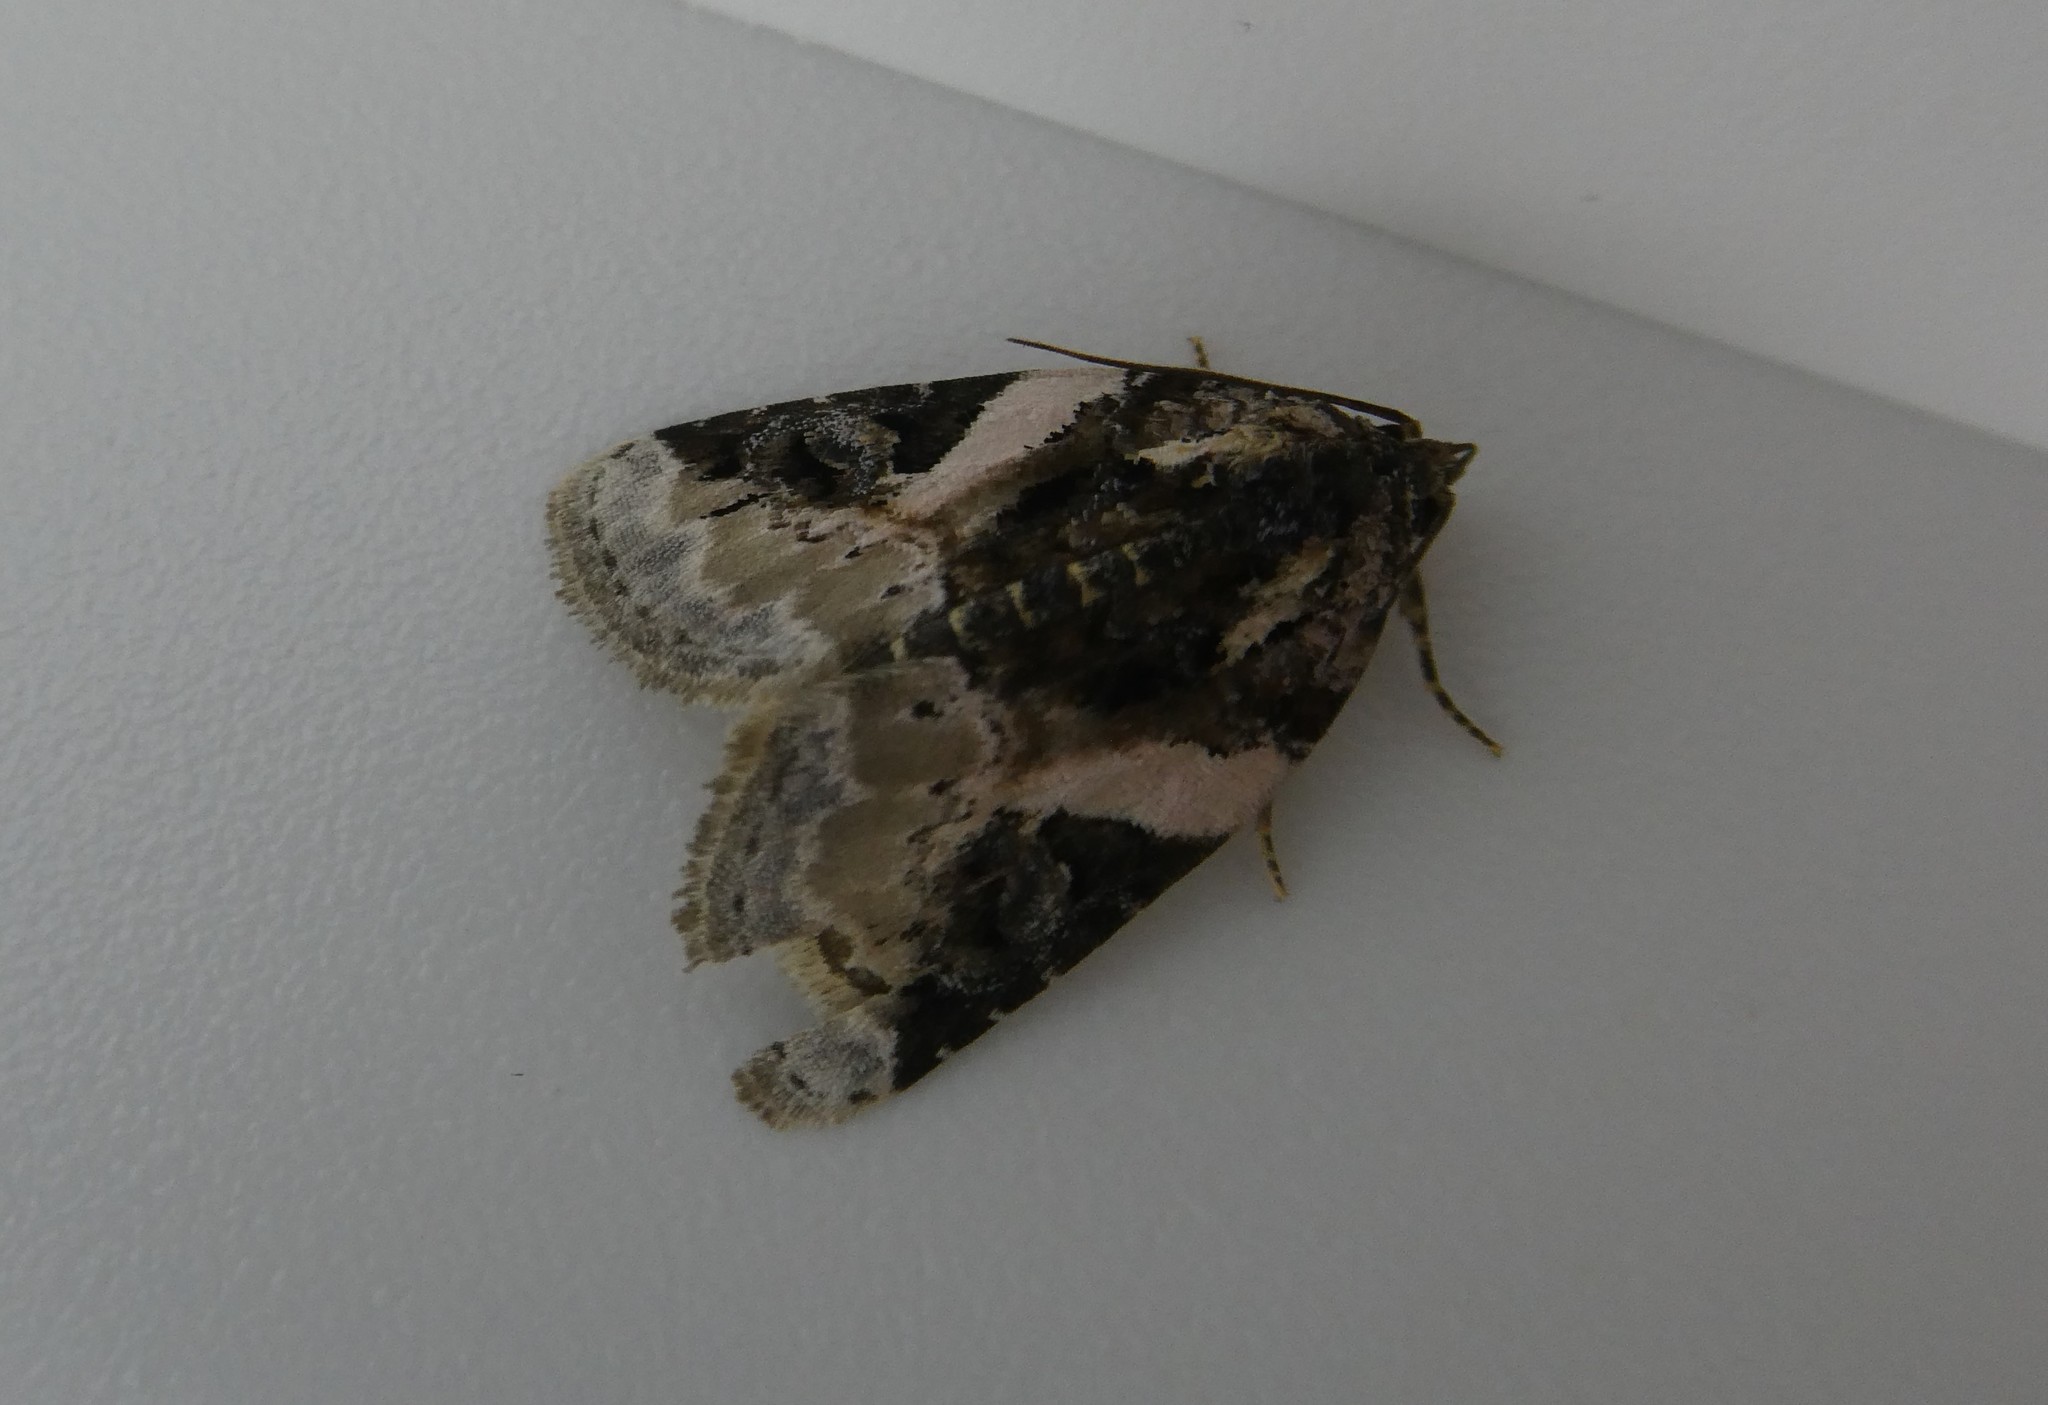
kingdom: Animalia
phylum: Arthropoda
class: Insecta
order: Lepidoptera
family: Noctuidae
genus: Pseudeustrotia
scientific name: Pseudeustrotia carneola
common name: Pink-barred lithacodia moth
